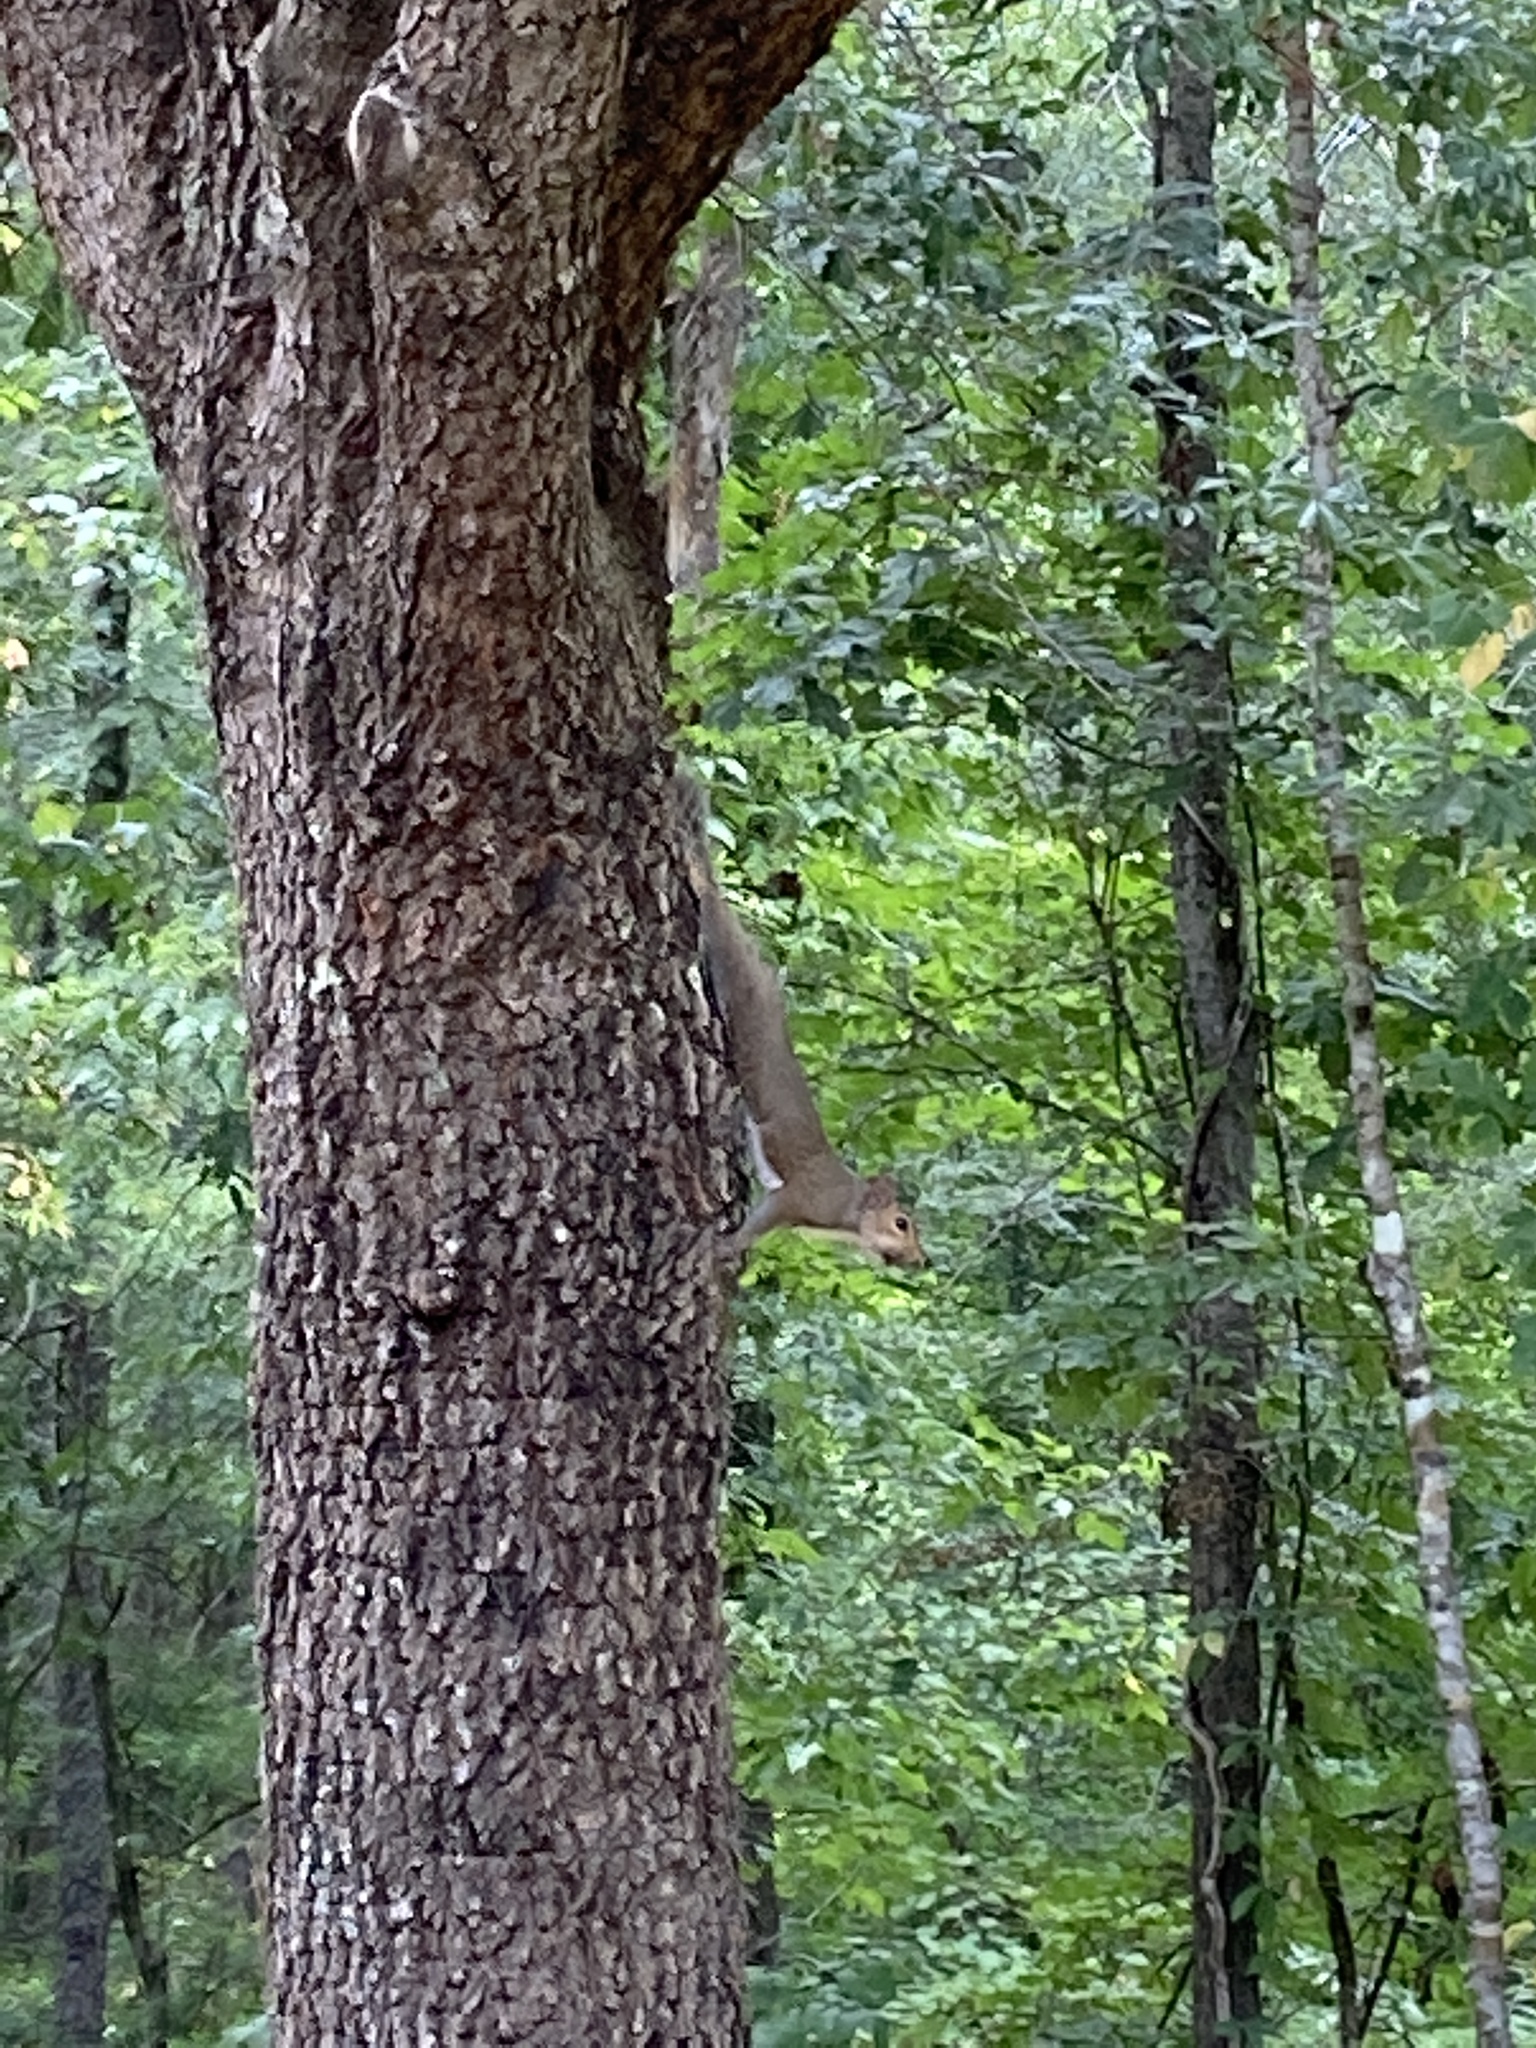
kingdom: Animalia
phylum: Chordata
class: Mammalia
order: Rodentia
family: Sciuridae
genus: Sciurus
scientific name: Sciurus carolinensis
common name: Eastern gray squirrel
